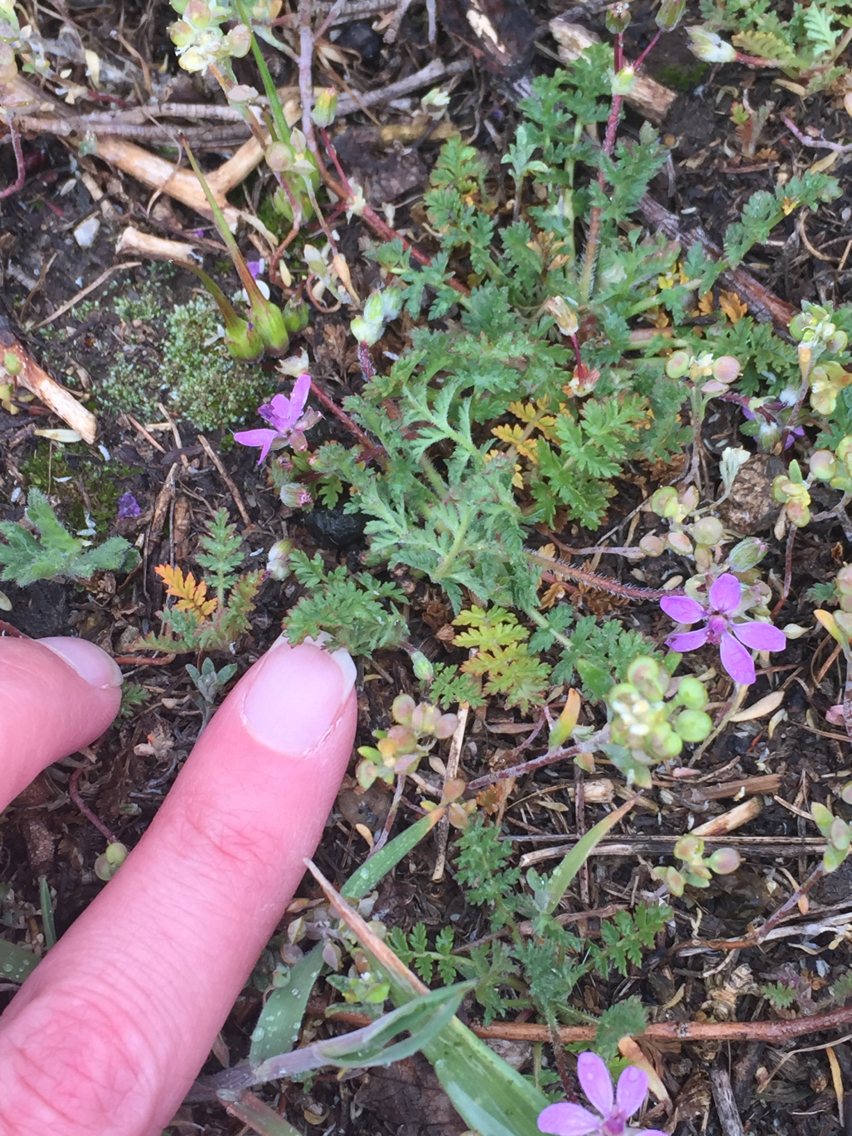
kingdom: Plantae
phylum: Tracheophyta
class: Magnoliopsida
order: Geraniales
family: Geraniaceae
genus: Erodium
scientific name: Erodium cicutarium
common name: Common stork's-bill
